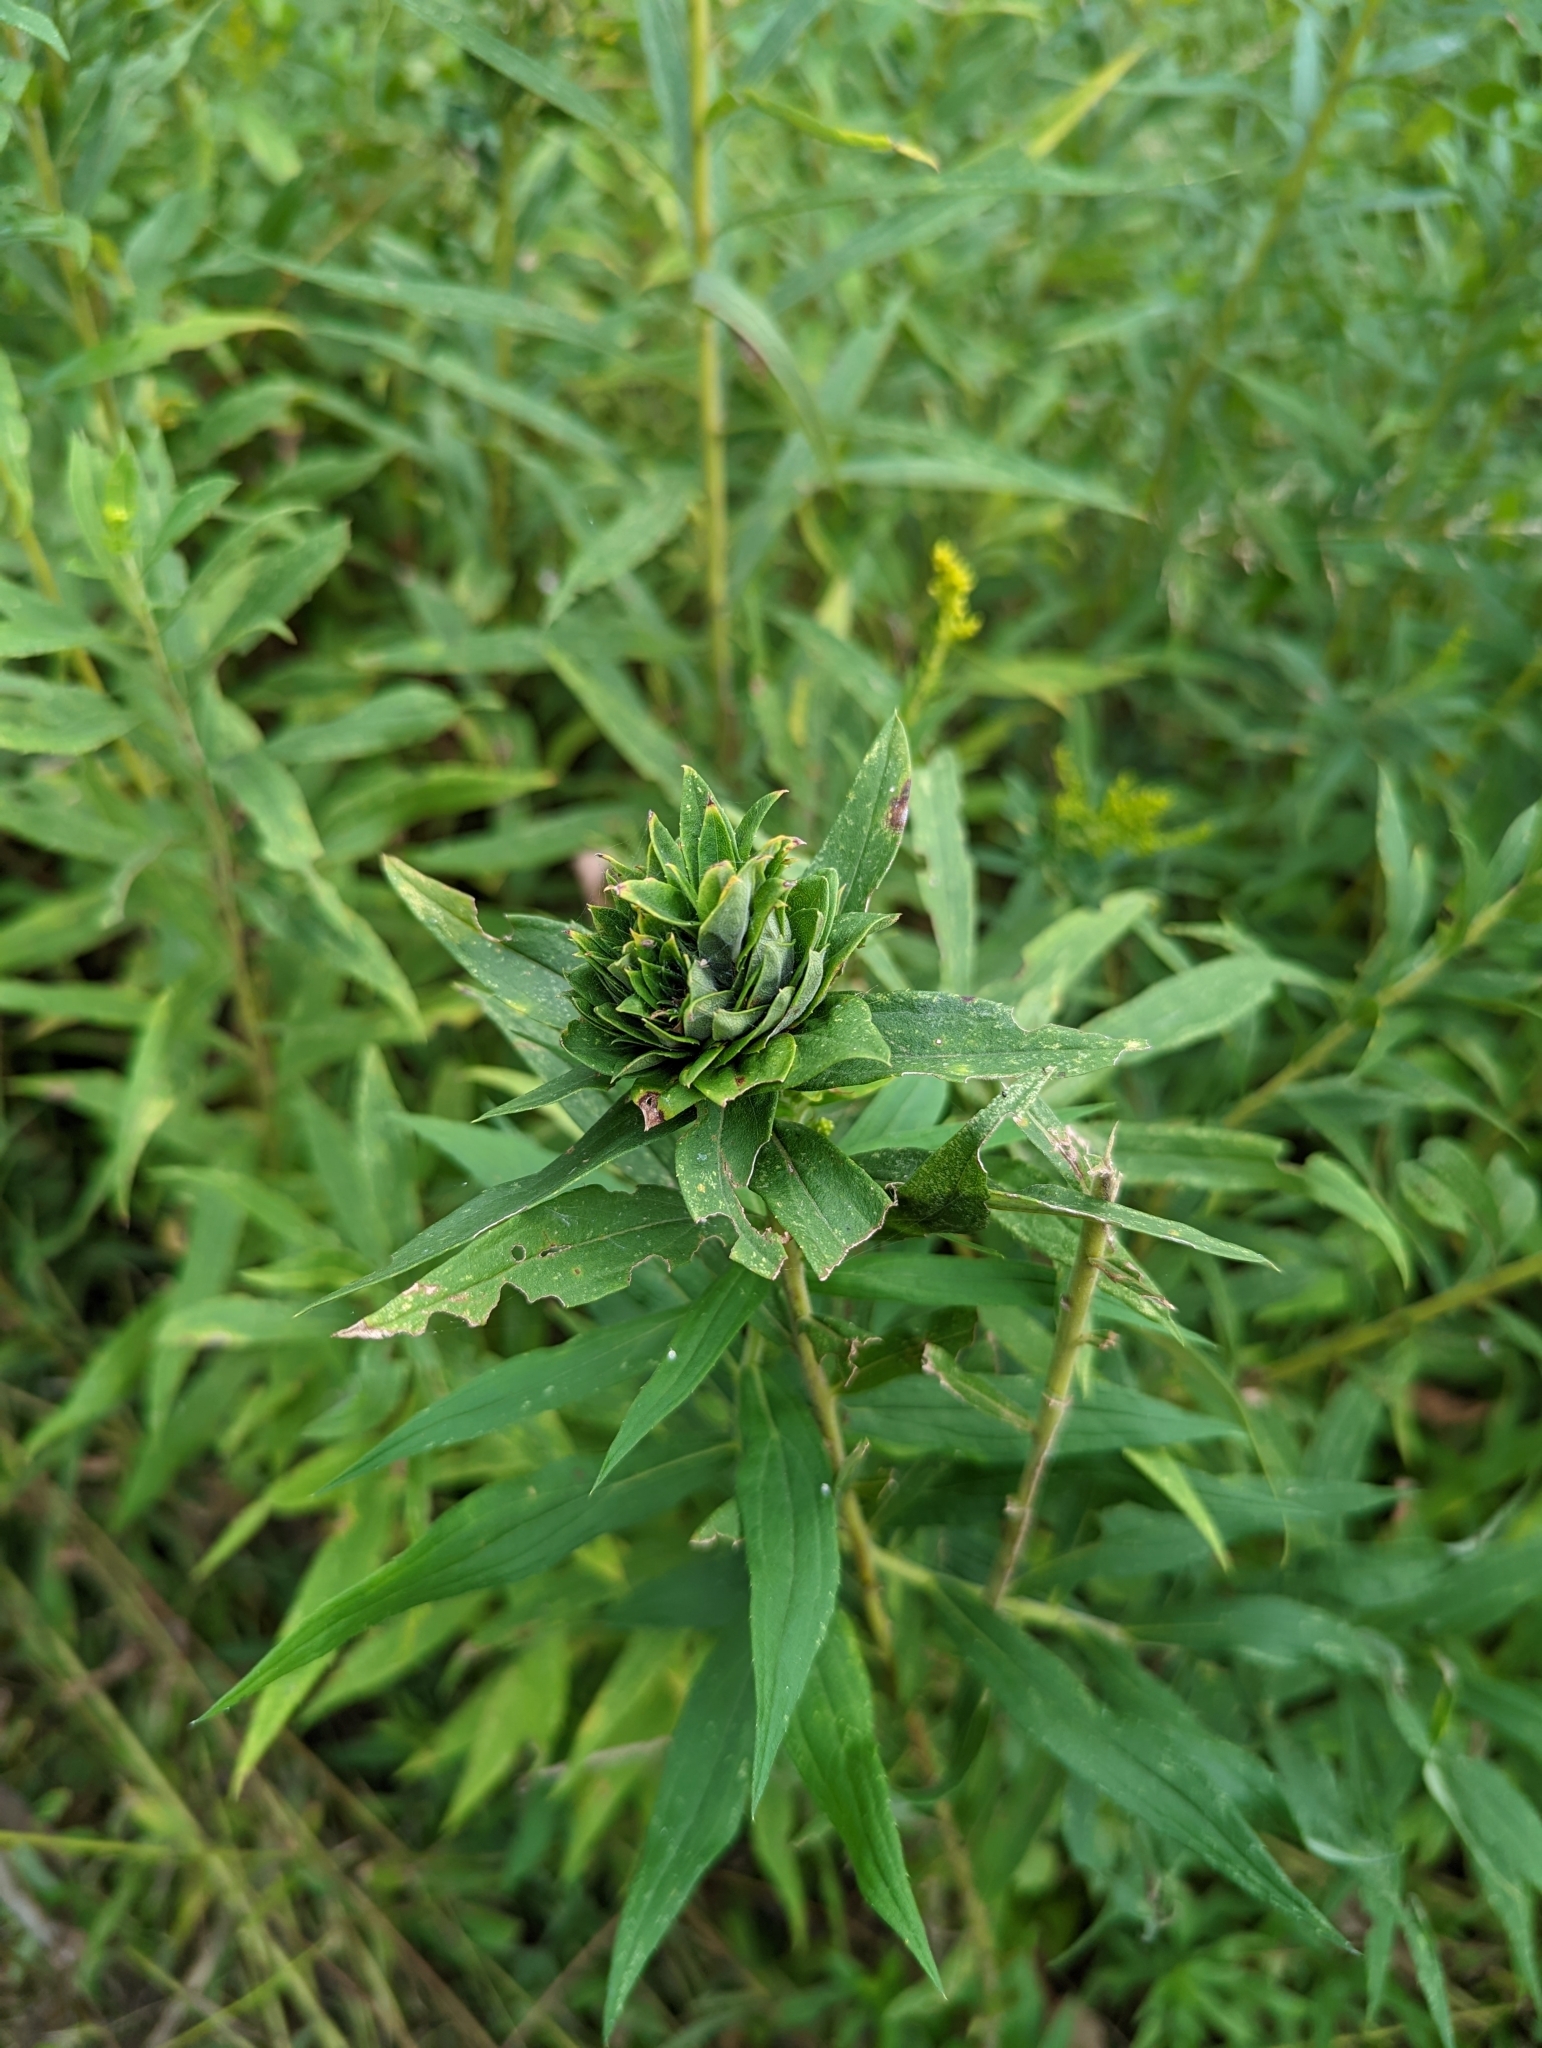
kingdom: Animalia
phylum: Arthropoda
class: Insecta
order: Diptera
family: Cecidomyiidae
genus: Rhopalomyia
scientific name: Rhopalomyia solidaginis
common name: Goldenrod bunch gall midge
